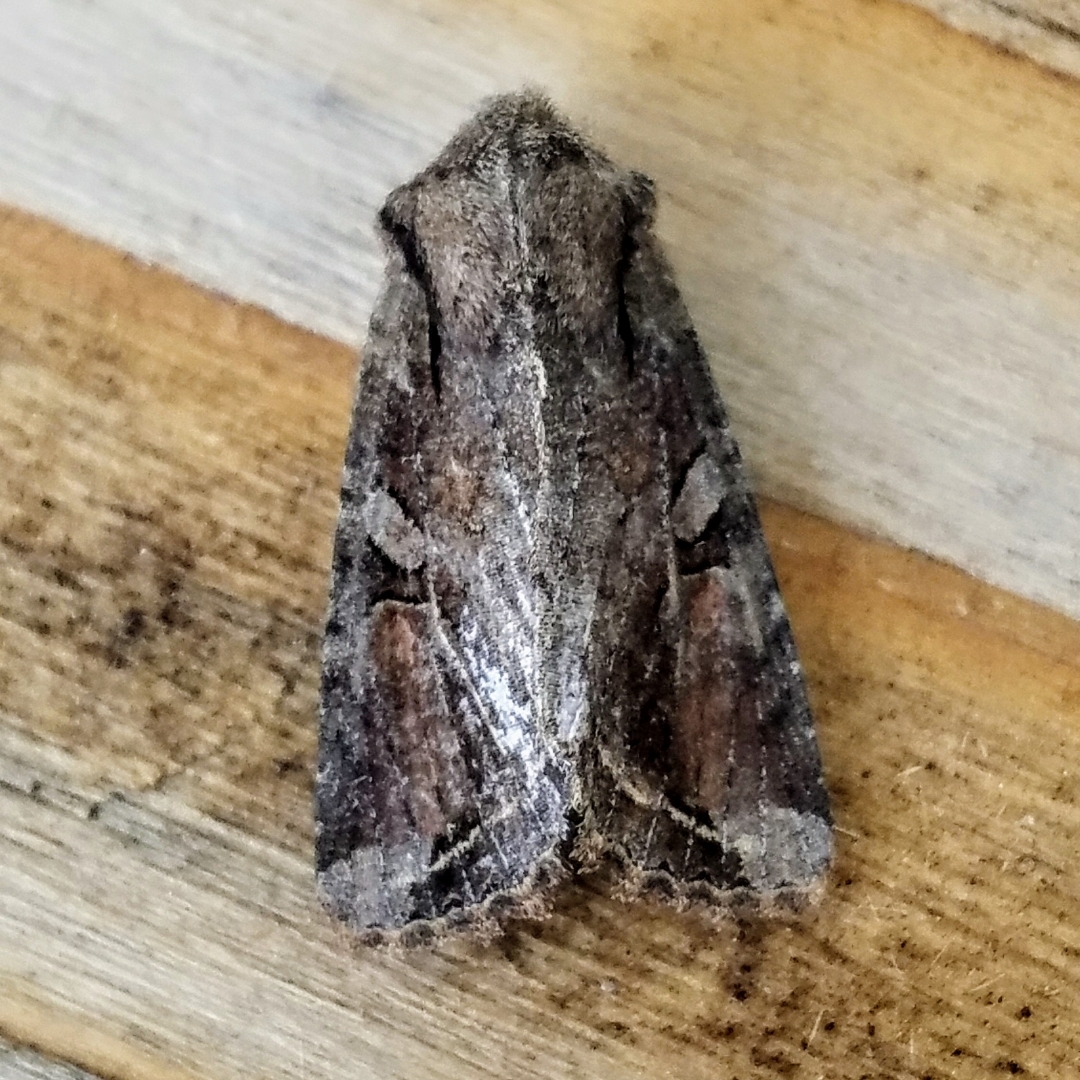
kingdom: Animalia
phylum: Arthropoda
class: Insecta
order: Lepidoptera
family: Noctuidae
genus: Egira
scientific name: Egira rubrica
